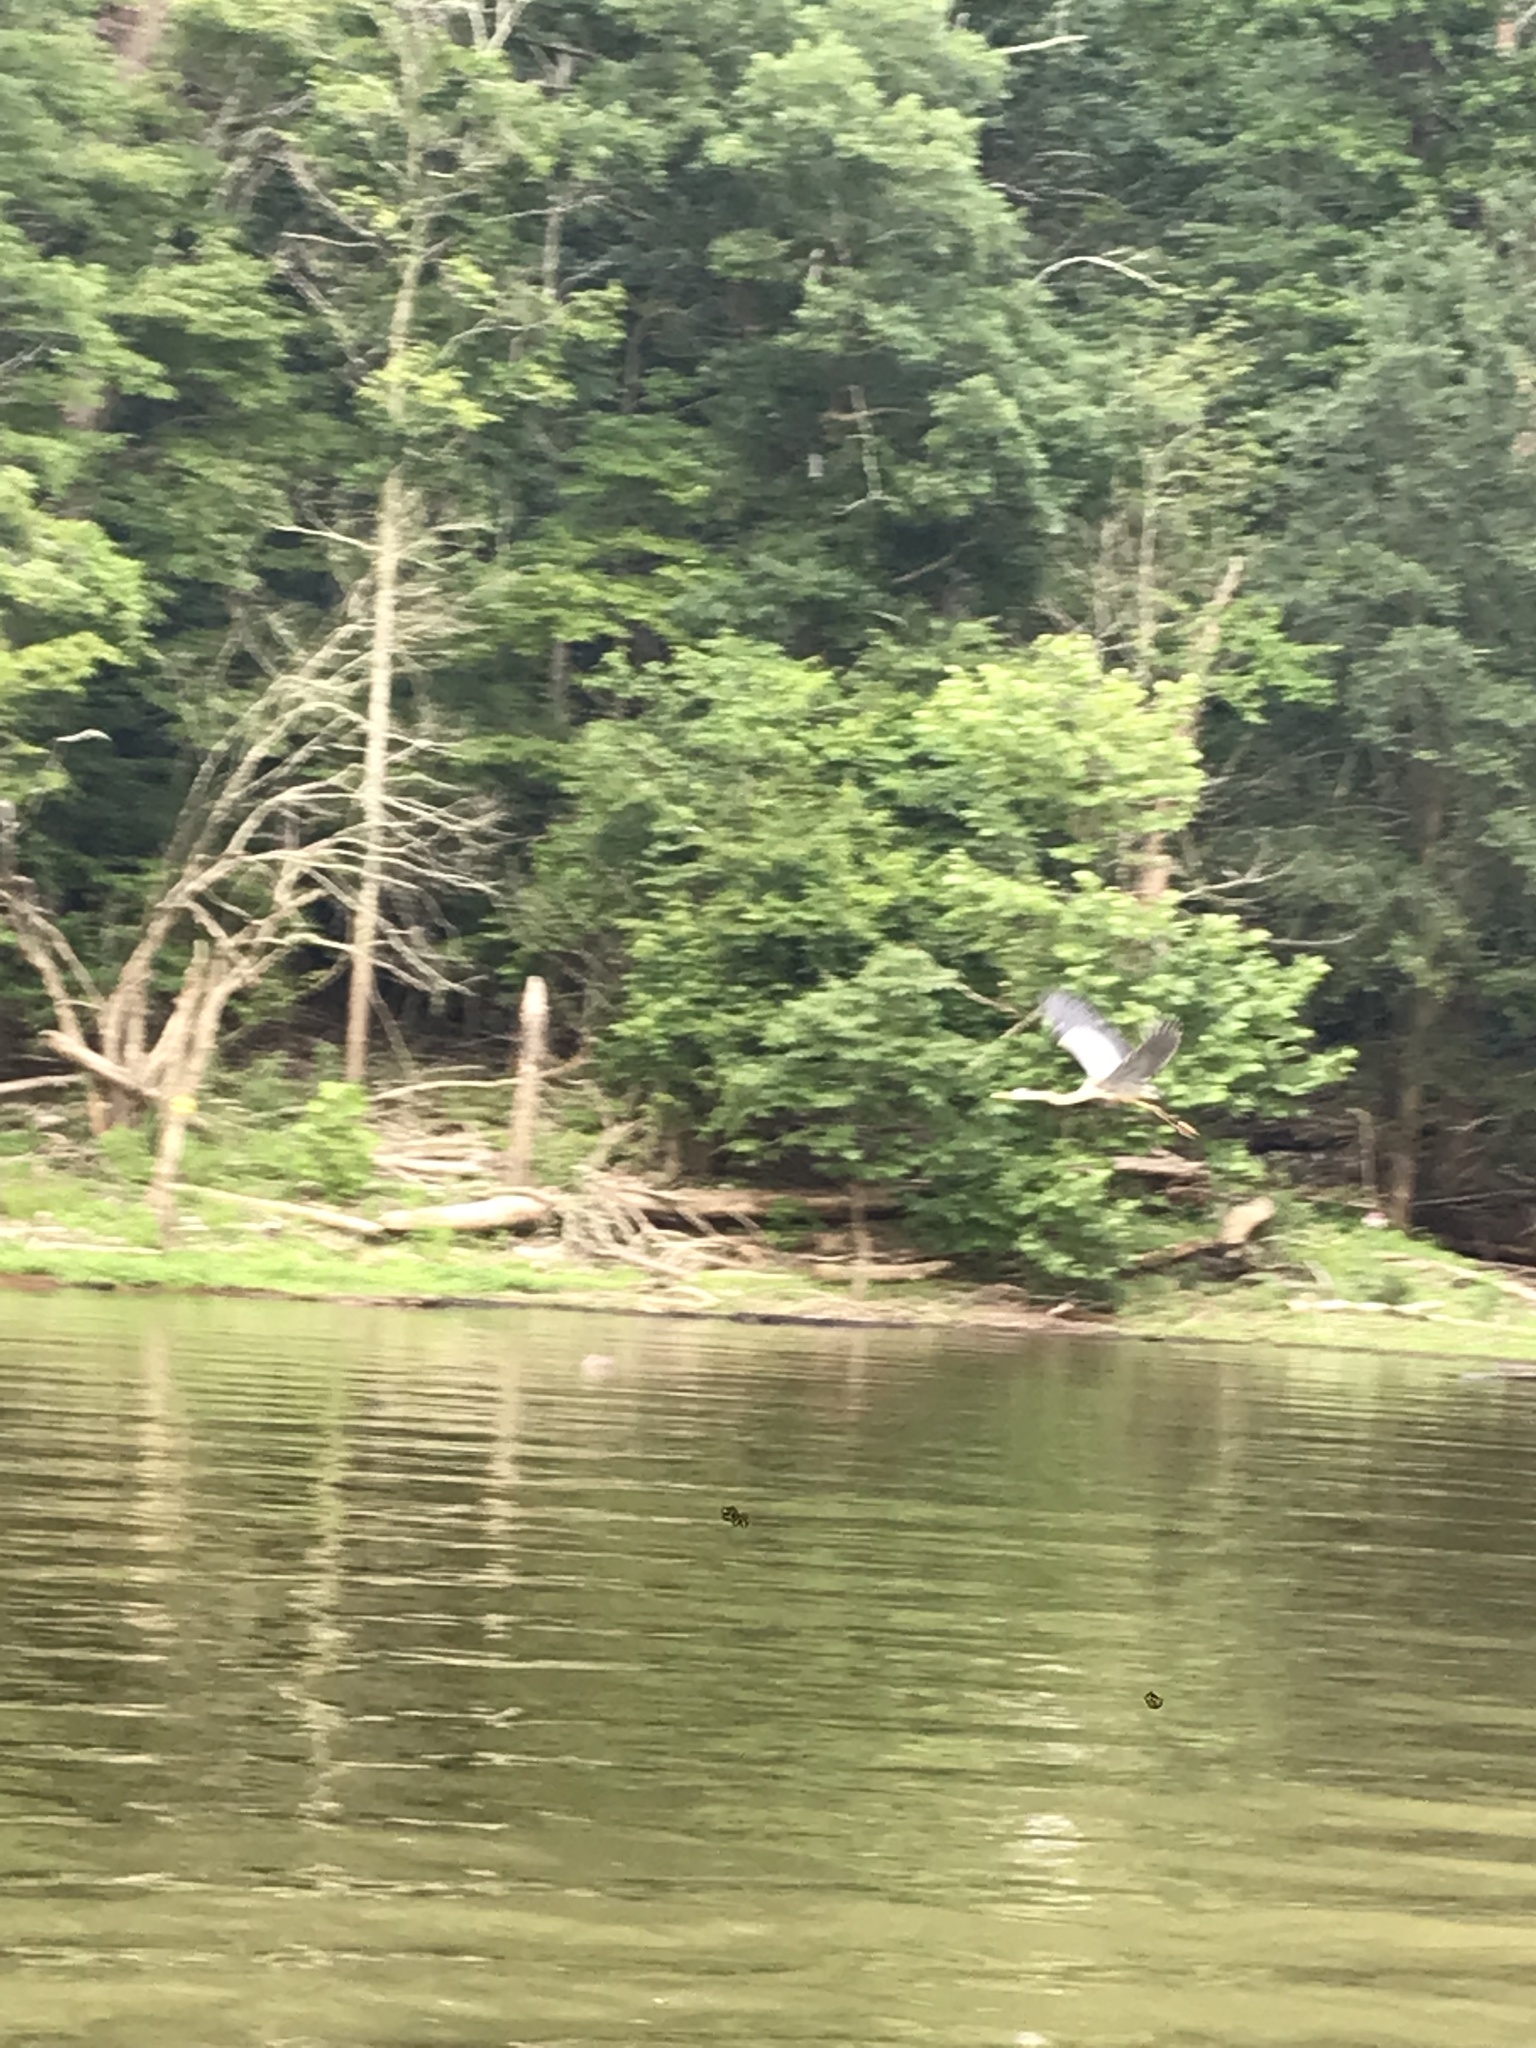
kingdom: Animalia
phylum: Chordata
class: Aves
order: Pelecaniformes
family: Ardeidae
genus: Ardea
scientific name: Ardea herodias
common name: Great blue heron
